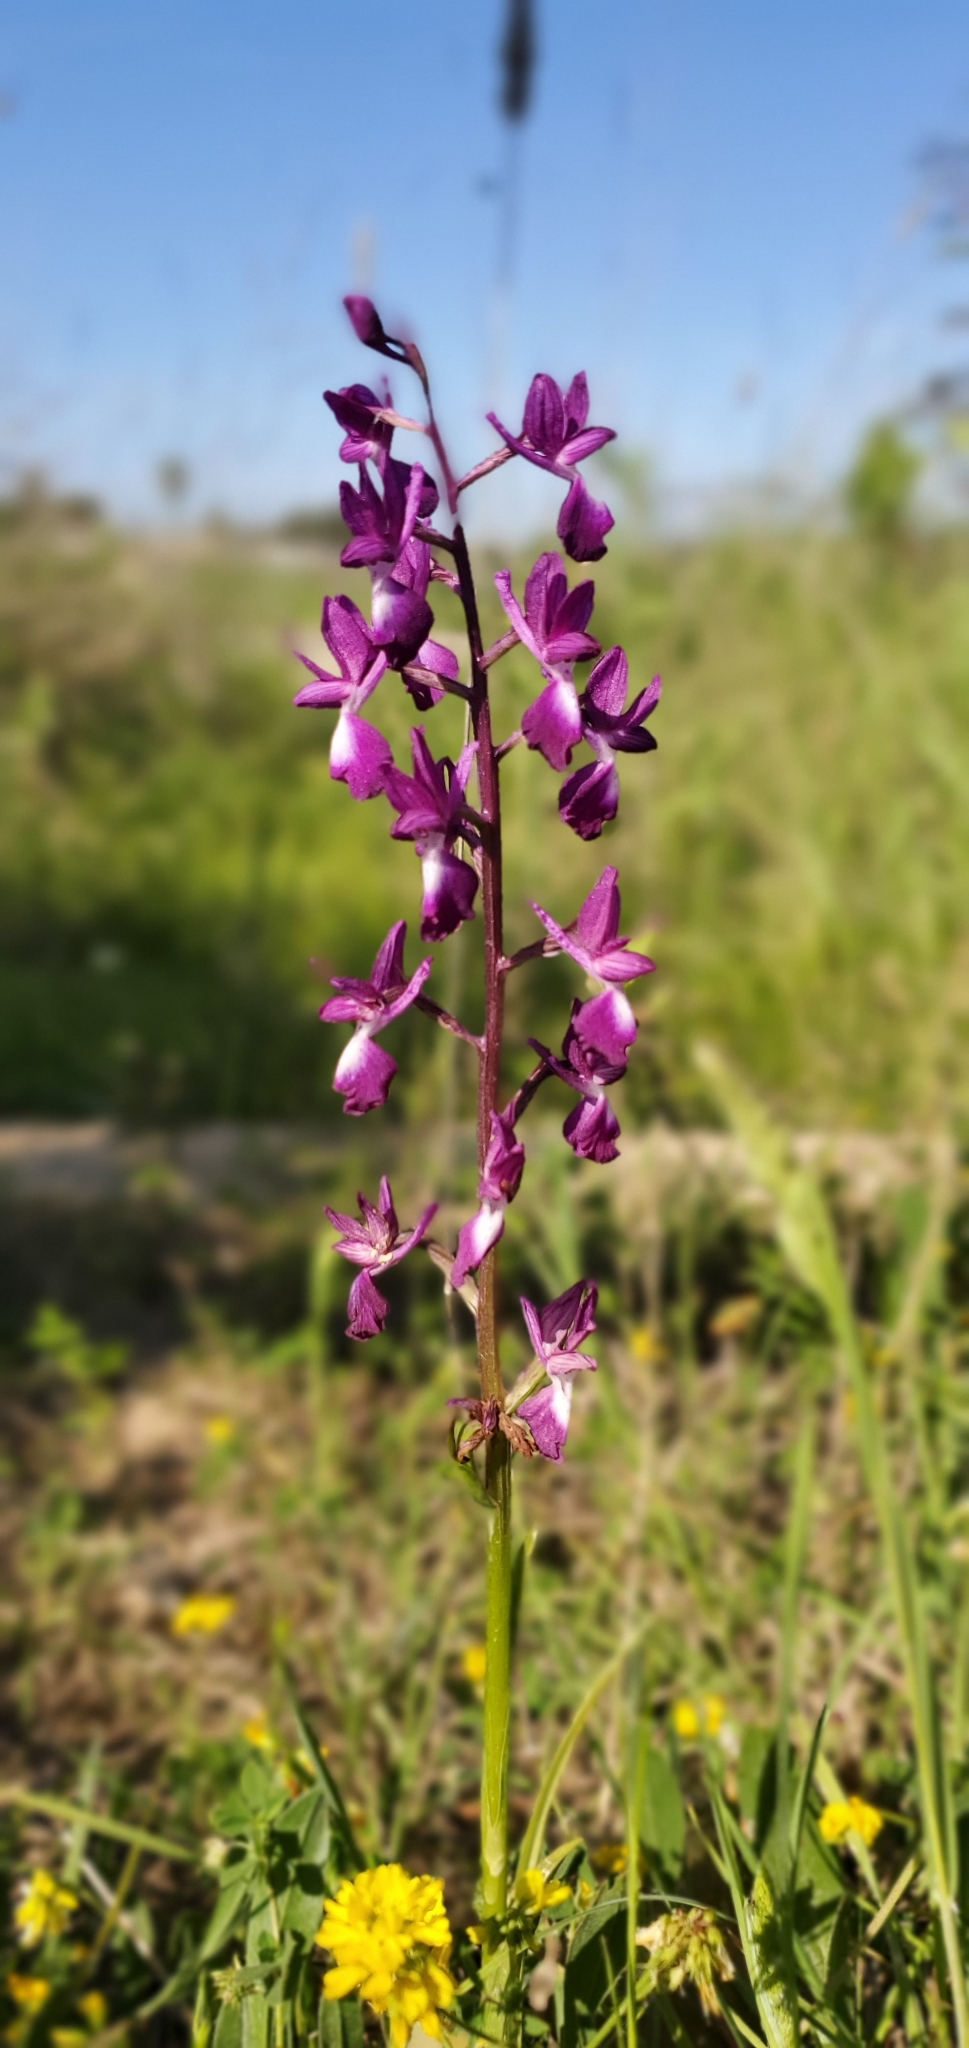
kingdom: Plantae
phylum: Tracheophyta
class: Liliopsida
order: Asparagales
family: Orchidaceae
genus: Anacamptis
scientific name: Anacamptis laxiflora
